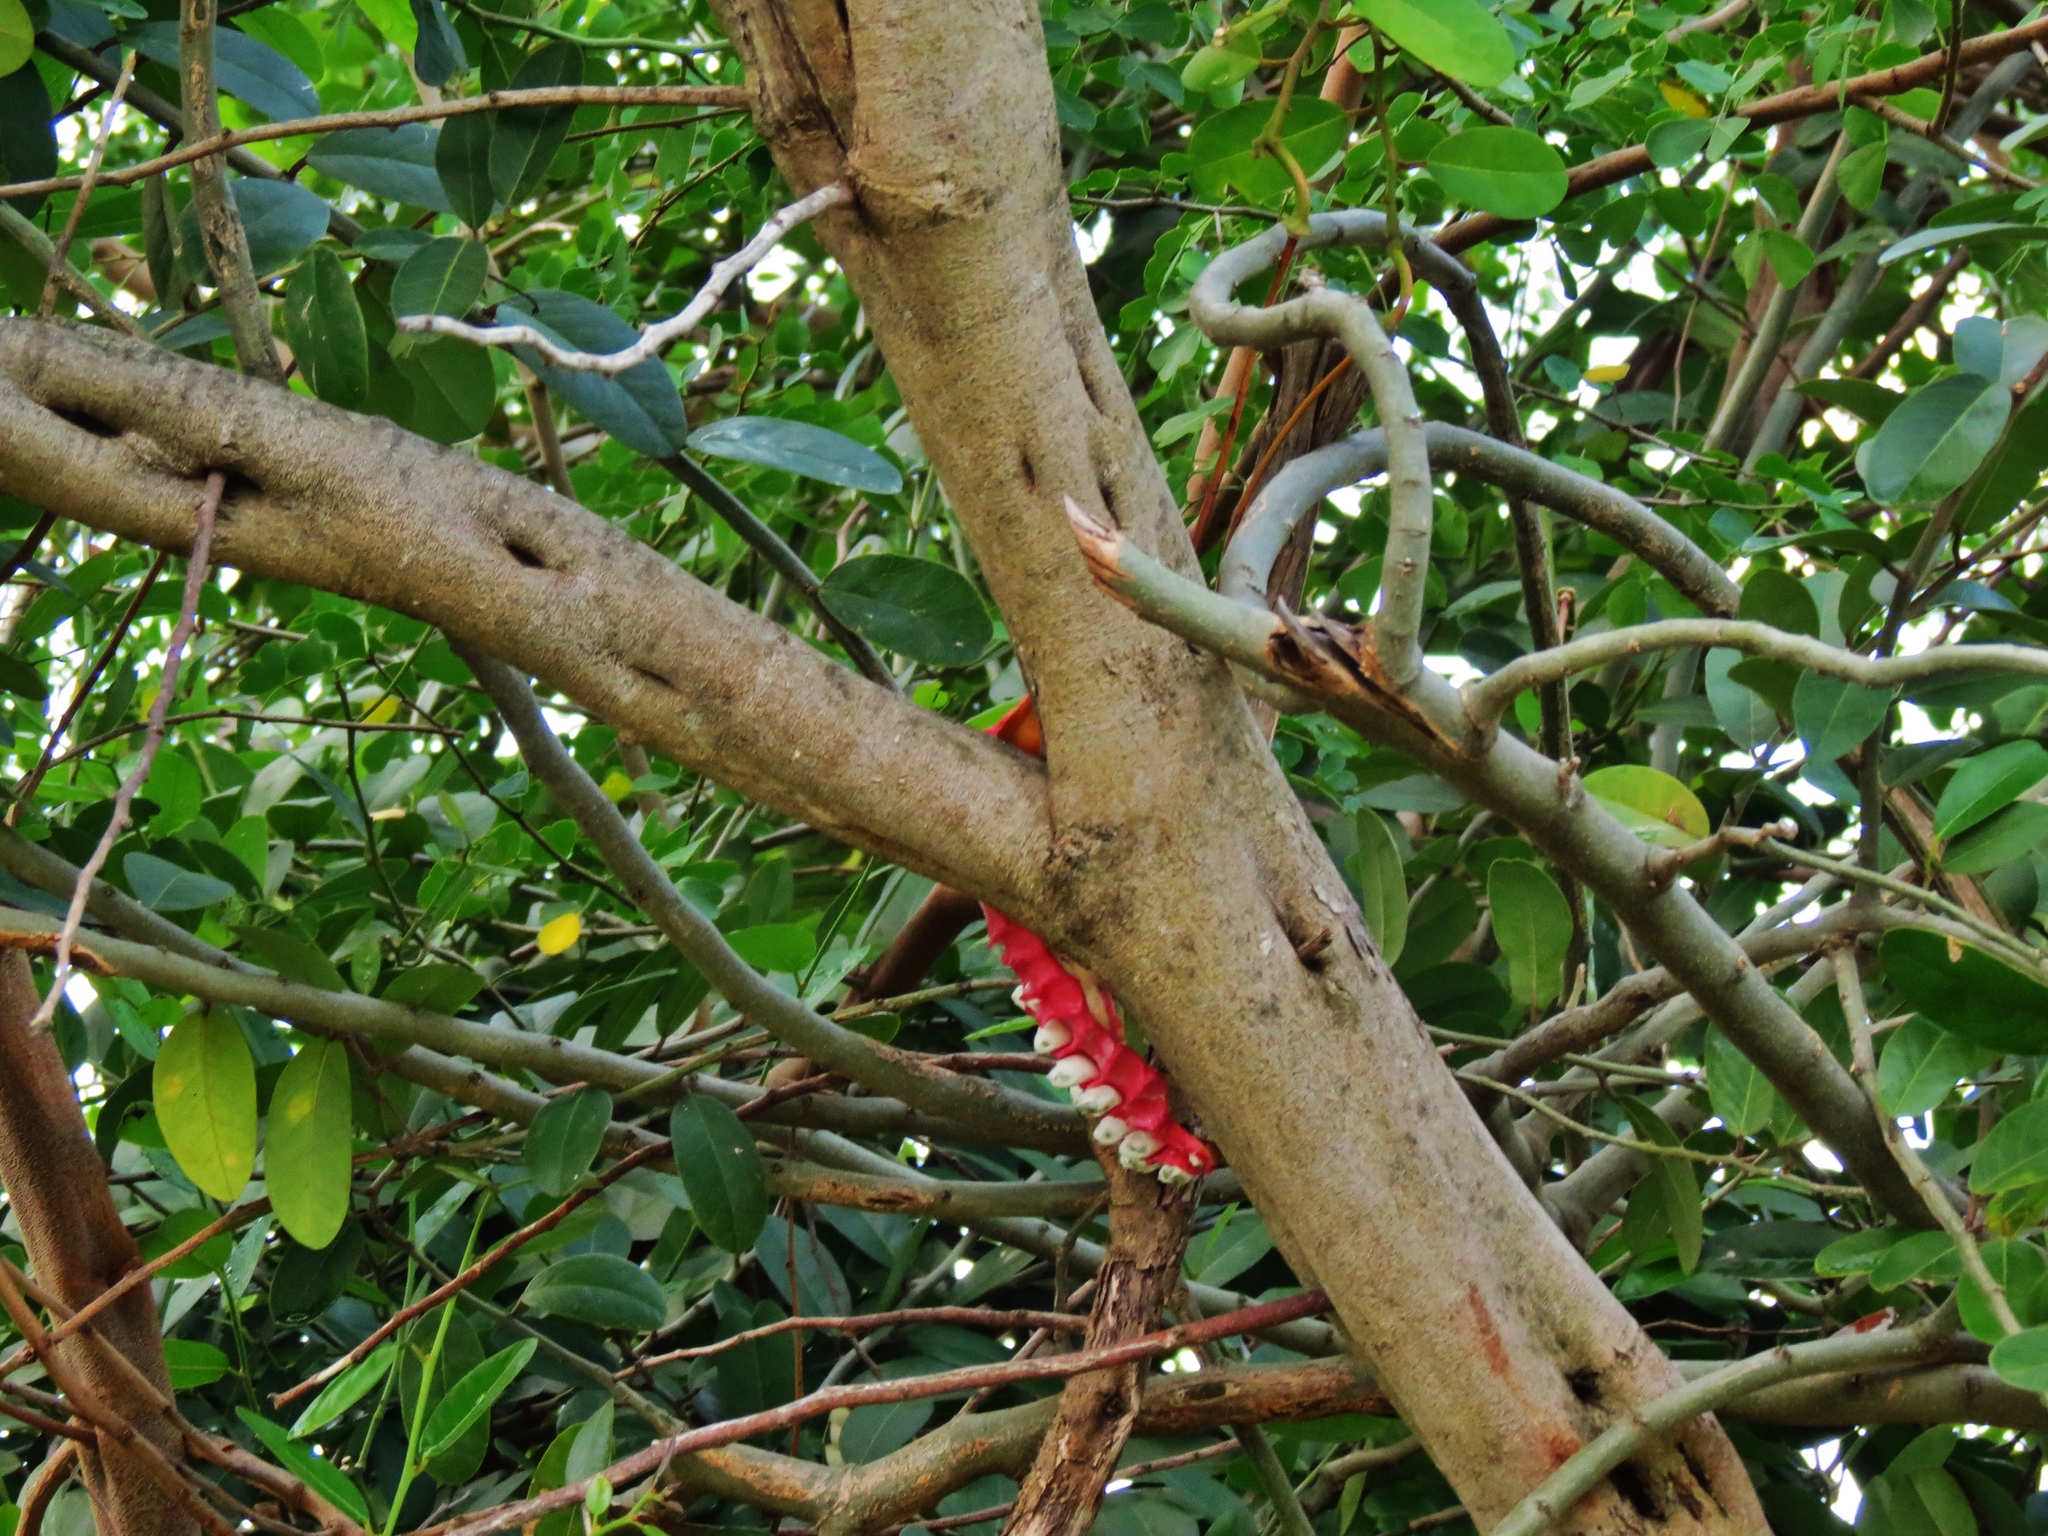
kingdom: Plantae
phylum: Tracheophyta
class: Magnoliopsida
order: Brassicales
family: Capparaceae
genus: Cynophalla
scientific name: Cynophalla flexuosa
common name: Capertree
